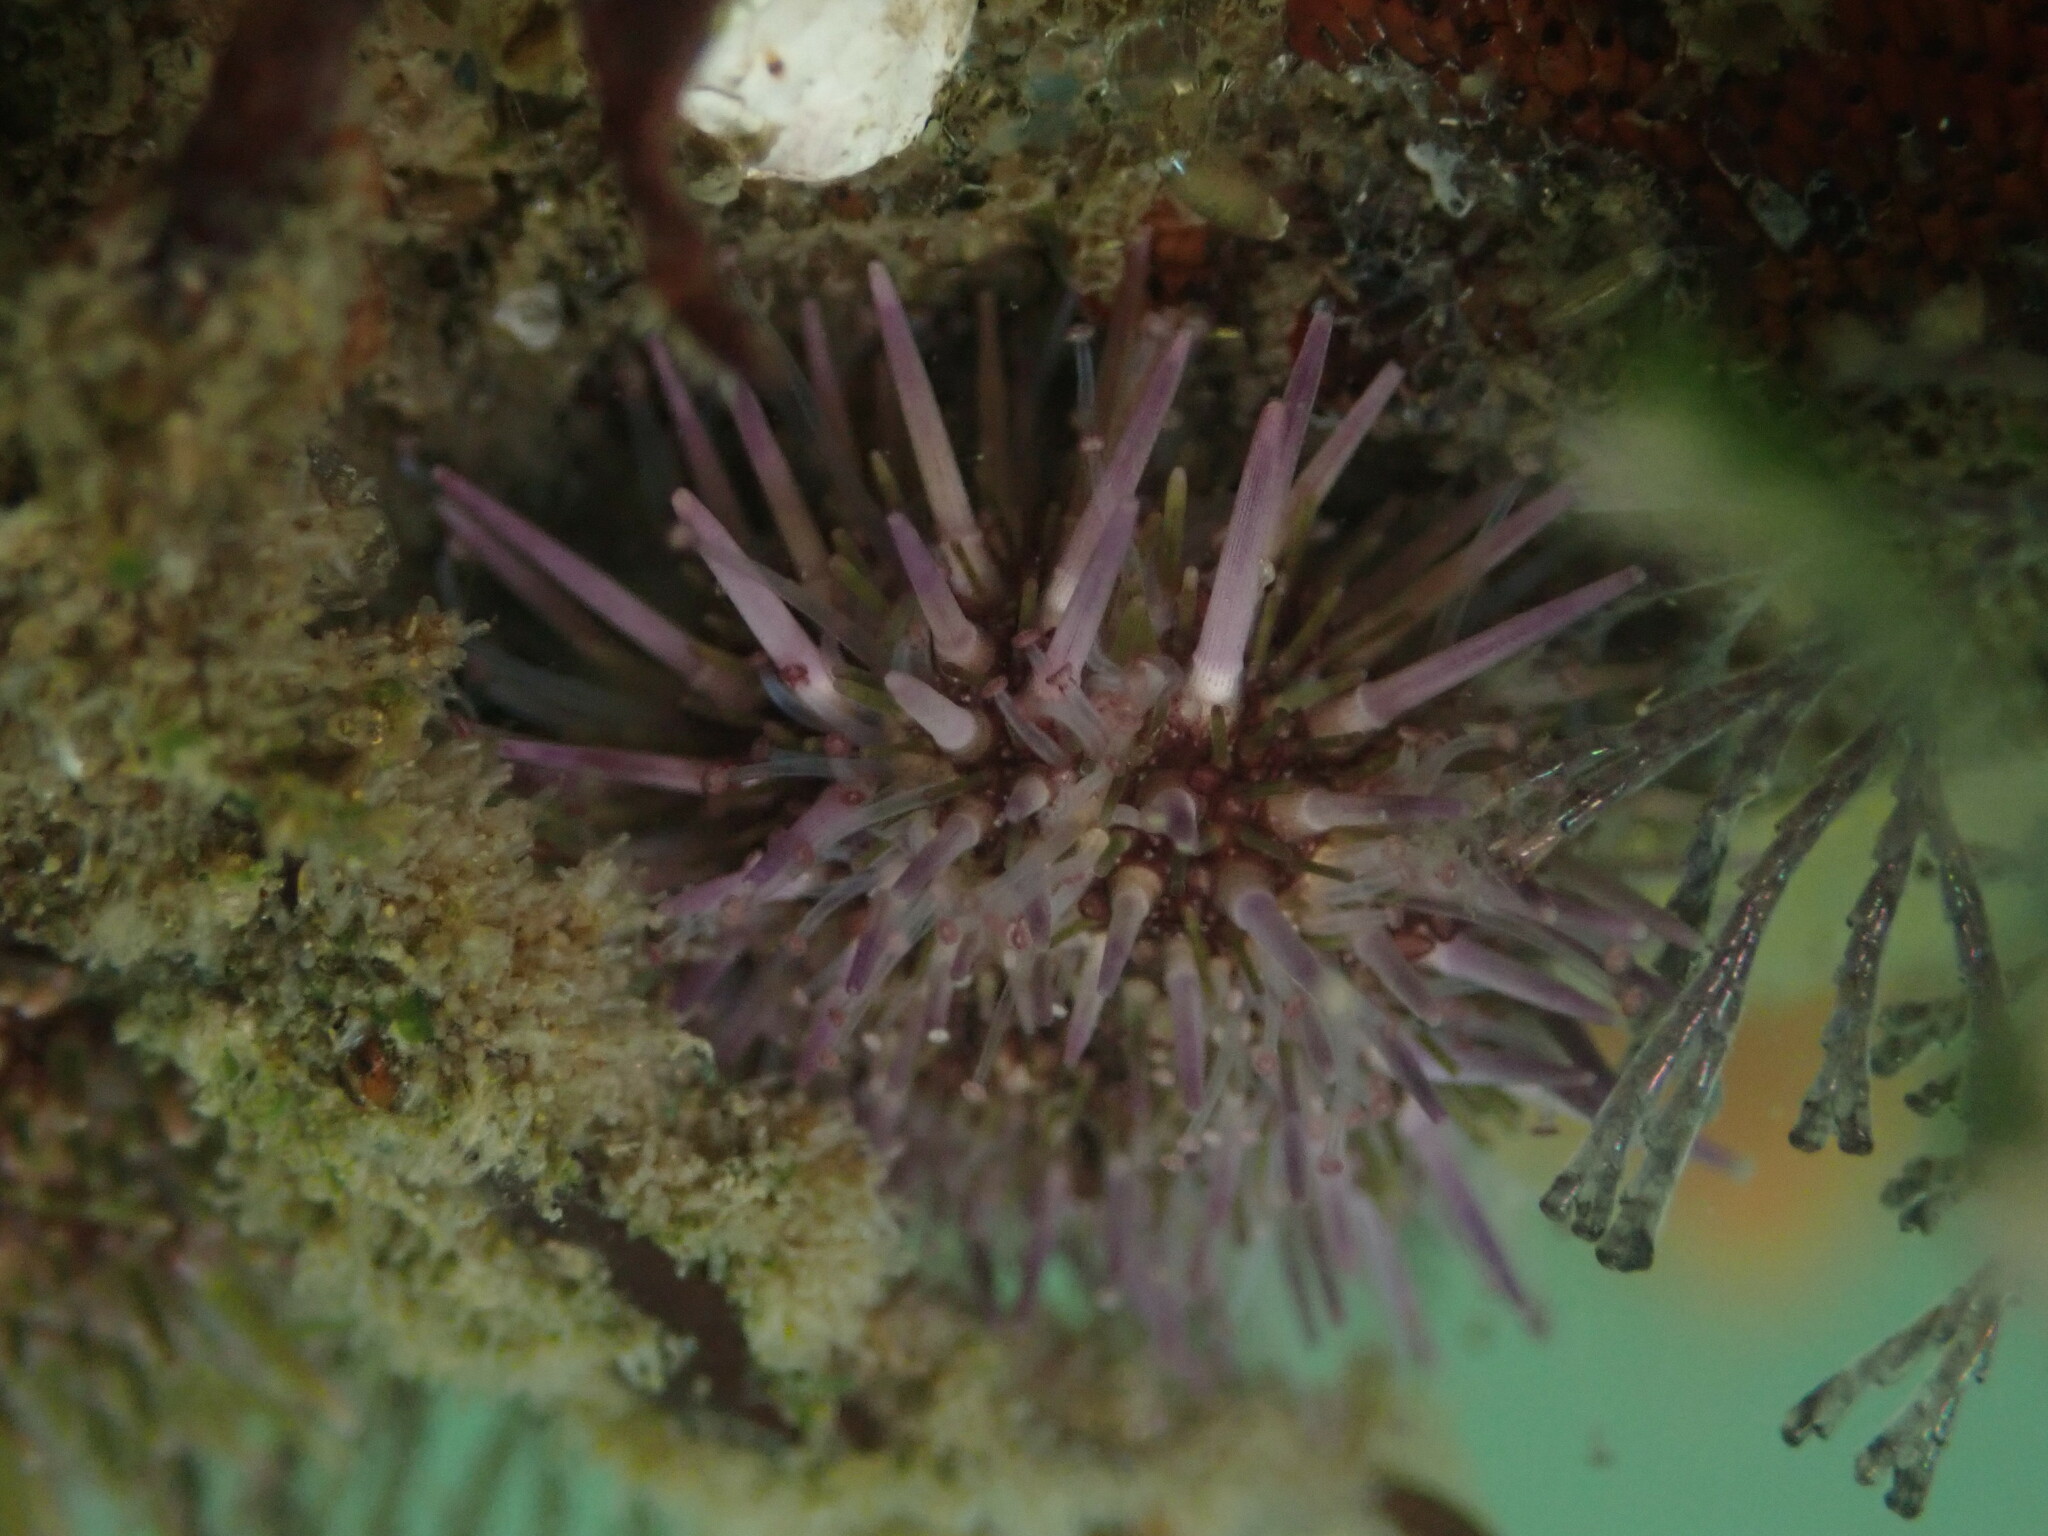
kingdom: Animalia
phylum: Echinodermata
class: Echinoidea
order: Camarodonta
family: Strongylocentrotidae
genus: Strongylocentrotus
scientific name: Strongylocentrotus purpuratus
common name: Purple sea urchin
